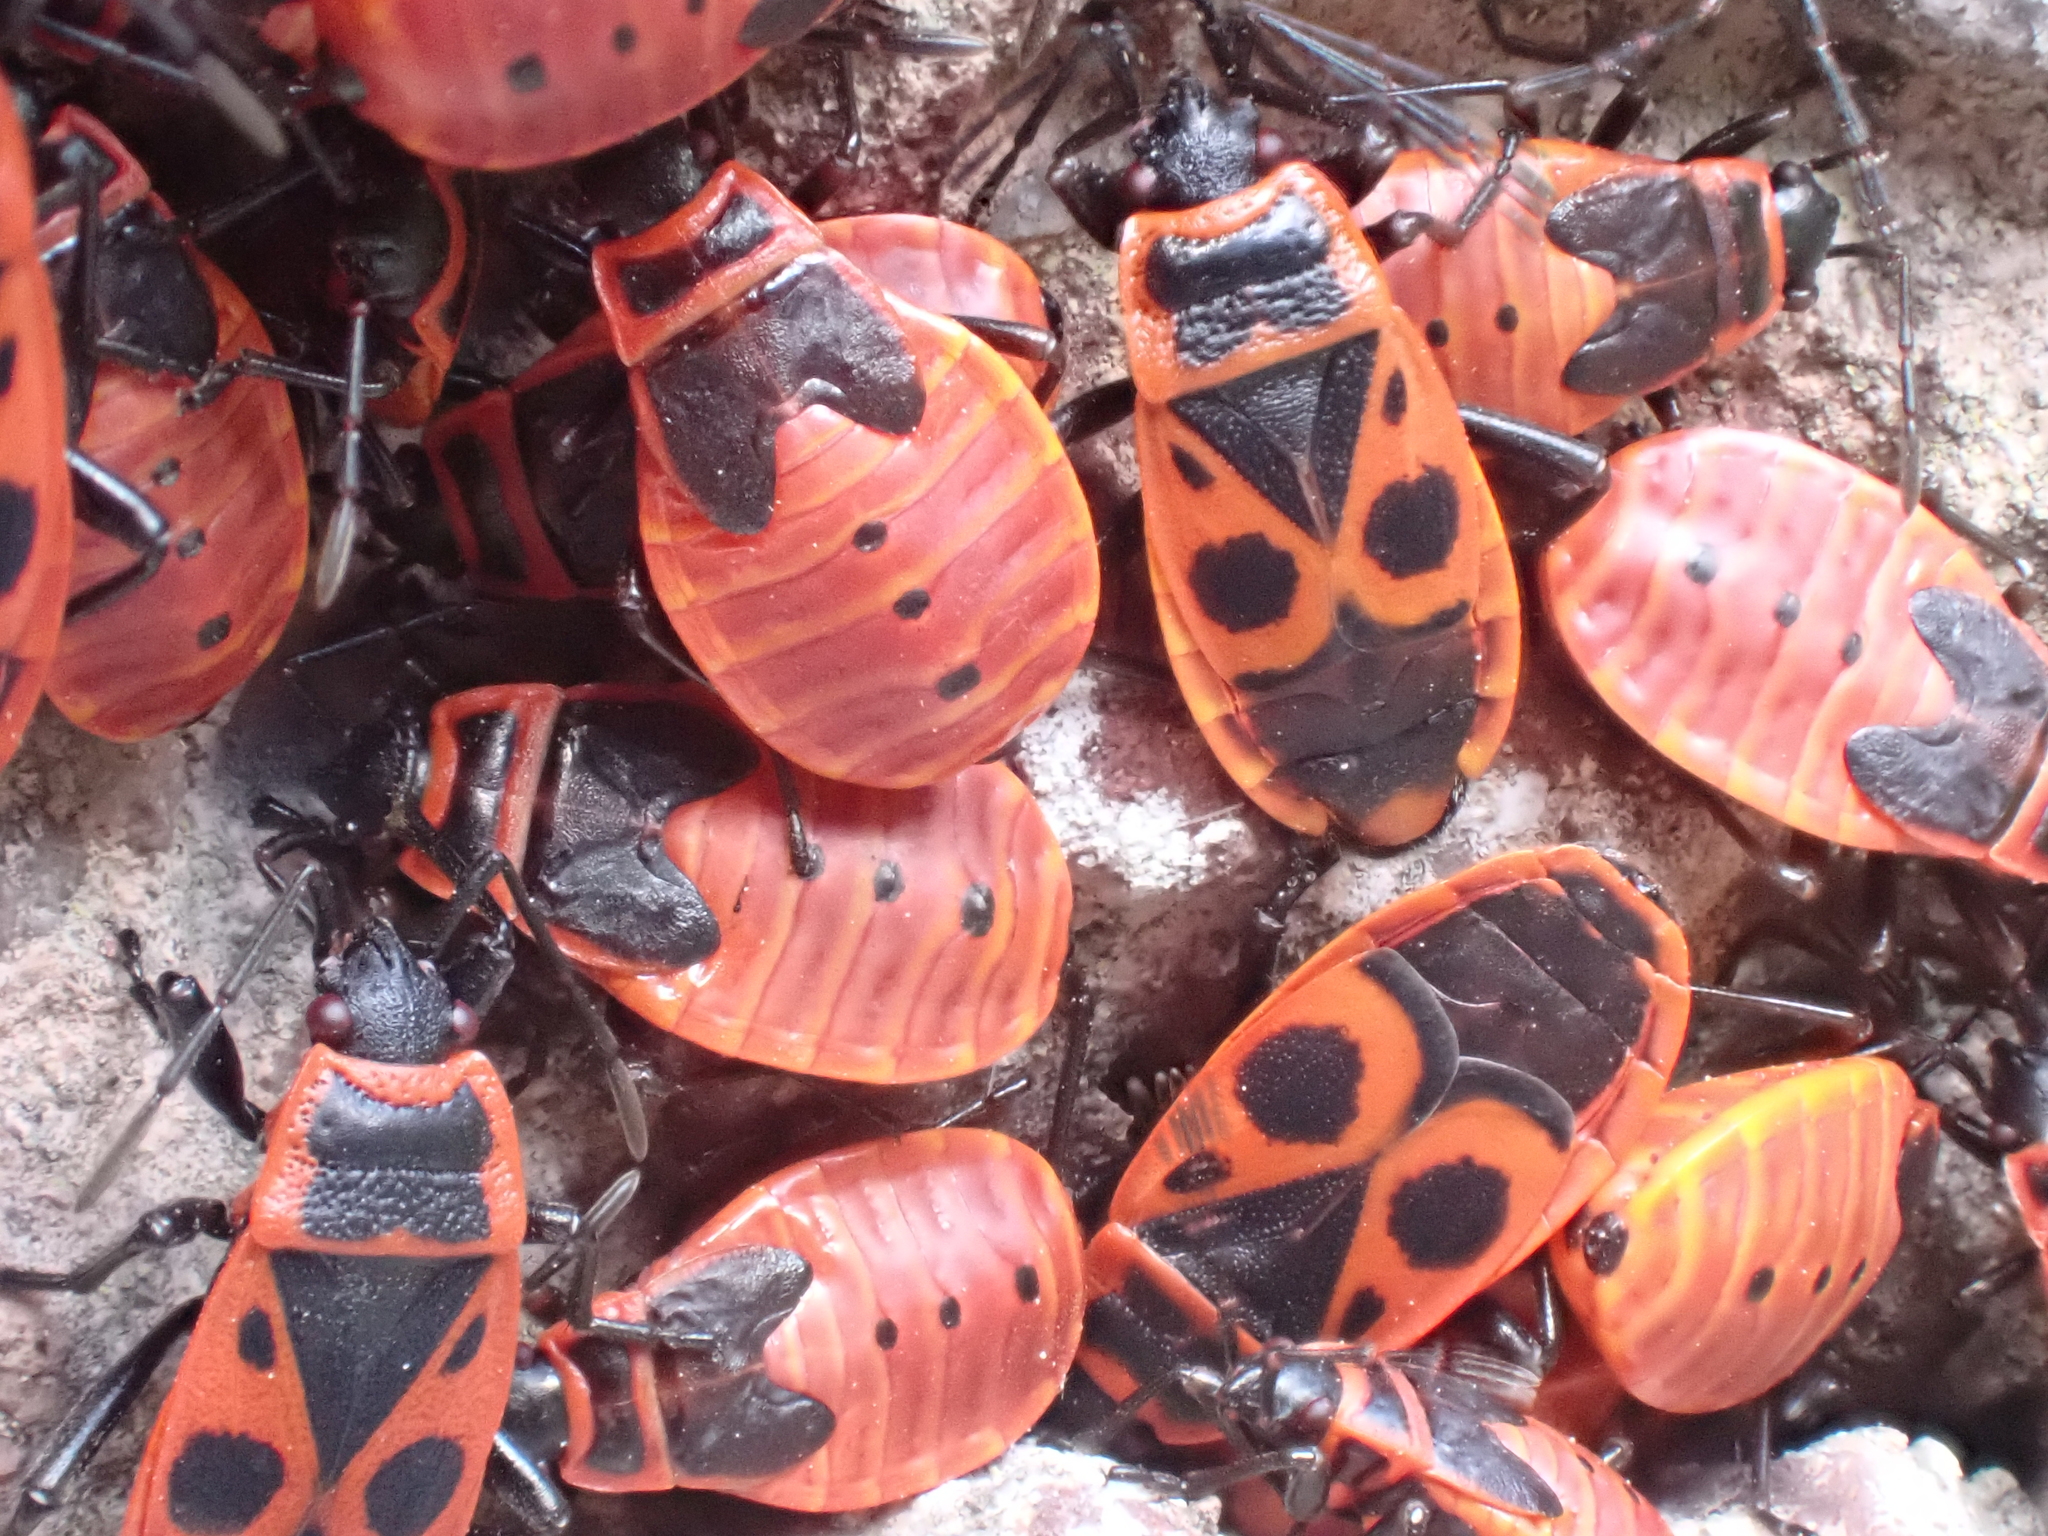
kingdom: Animalia
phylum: Arthropoda
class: Insecta
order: Hemiptera
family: Pyrrhocoridae
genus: Pyrrhocoris
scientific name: Pyrrhocoris apterus
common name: Firebug
